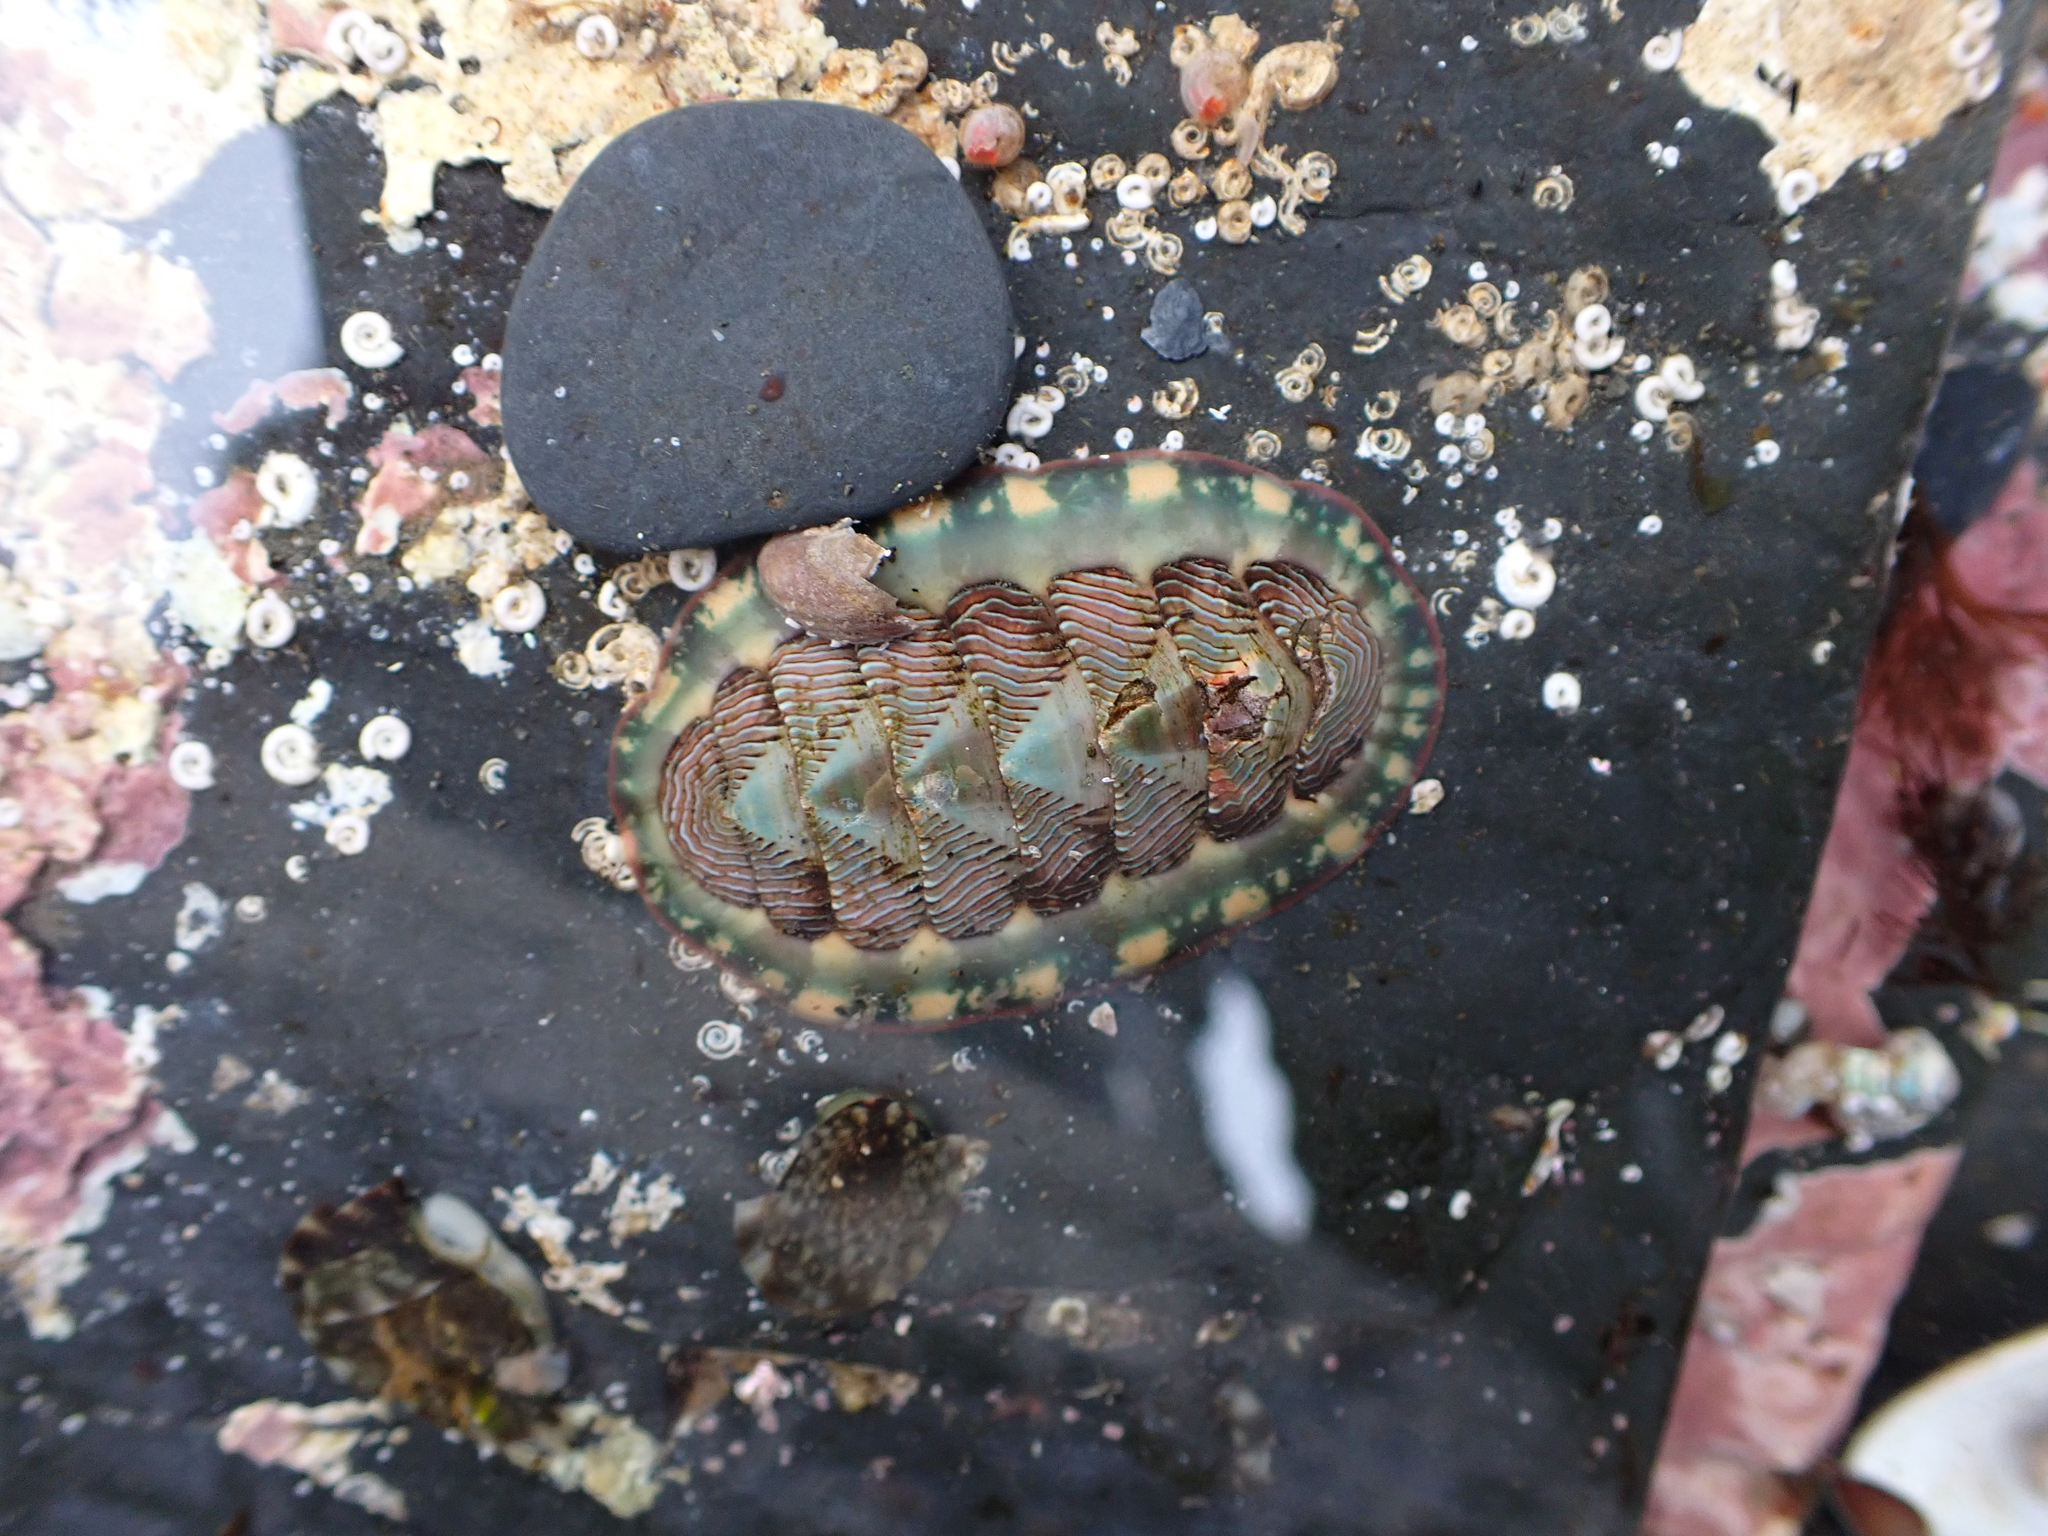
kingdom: Animalia
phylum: Mollusca
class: Polyplacophora
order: Chitonida
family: Tonicellidae
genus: Tonicella
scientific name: Tonicella lineata
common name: Lined chiton
